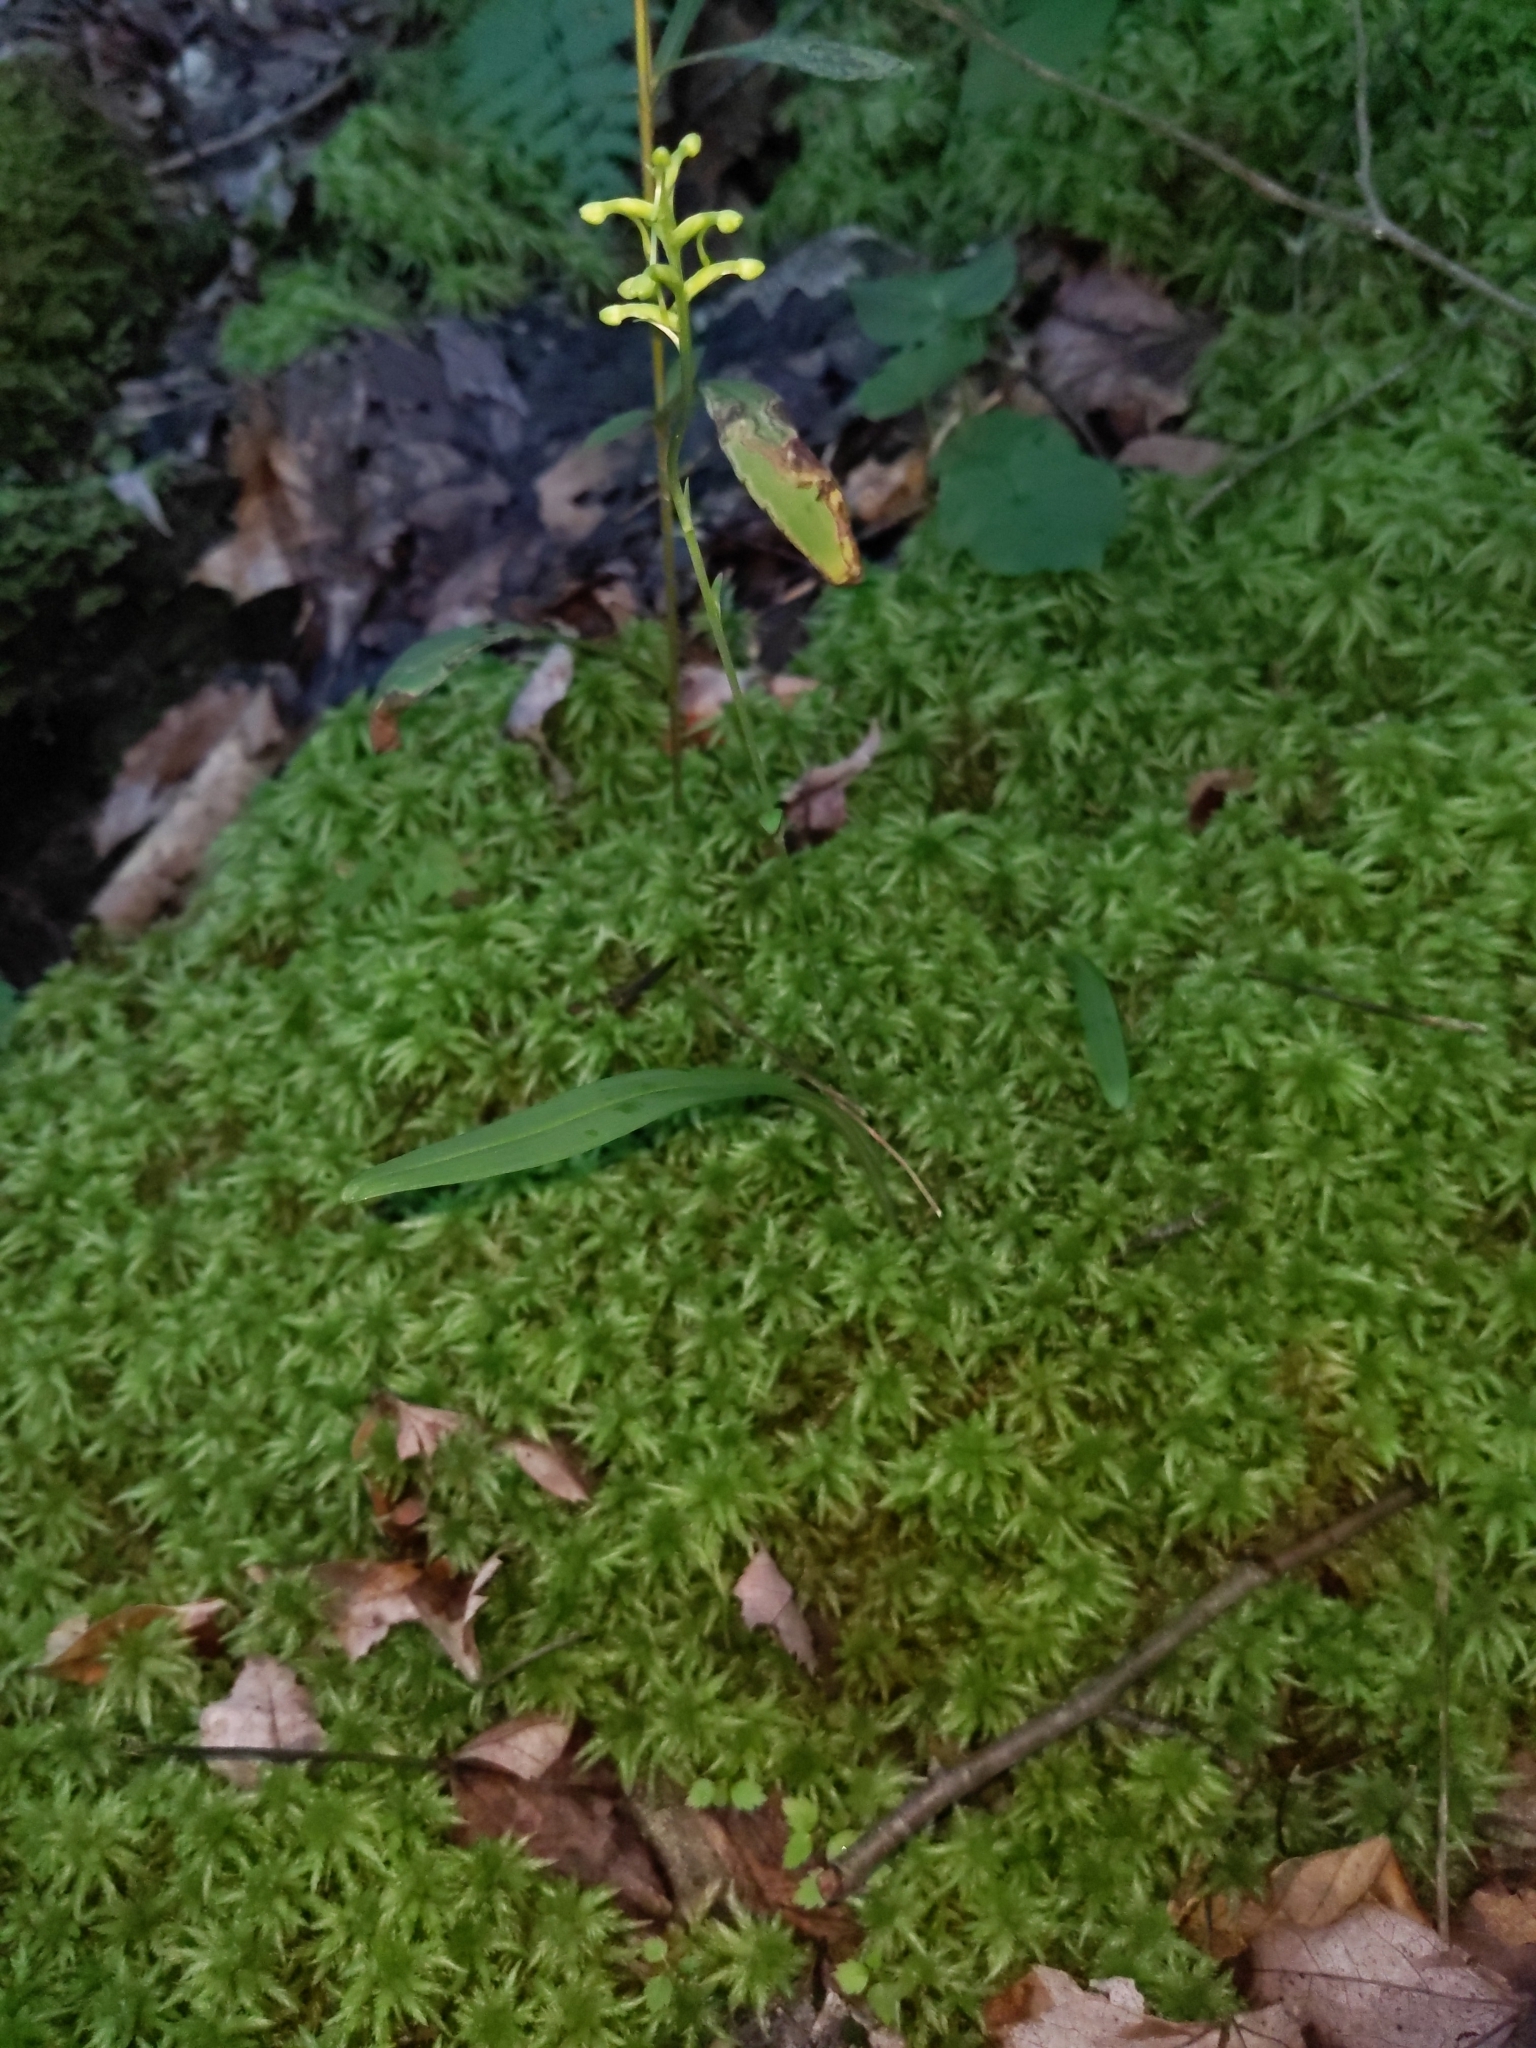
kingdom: Plantae
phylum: Tracheophyta
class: Liliopsida
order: Asparagales
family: Orchidaceae
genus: Platanthera
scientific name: Platanthera clavellata
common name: Club-spur orchid
